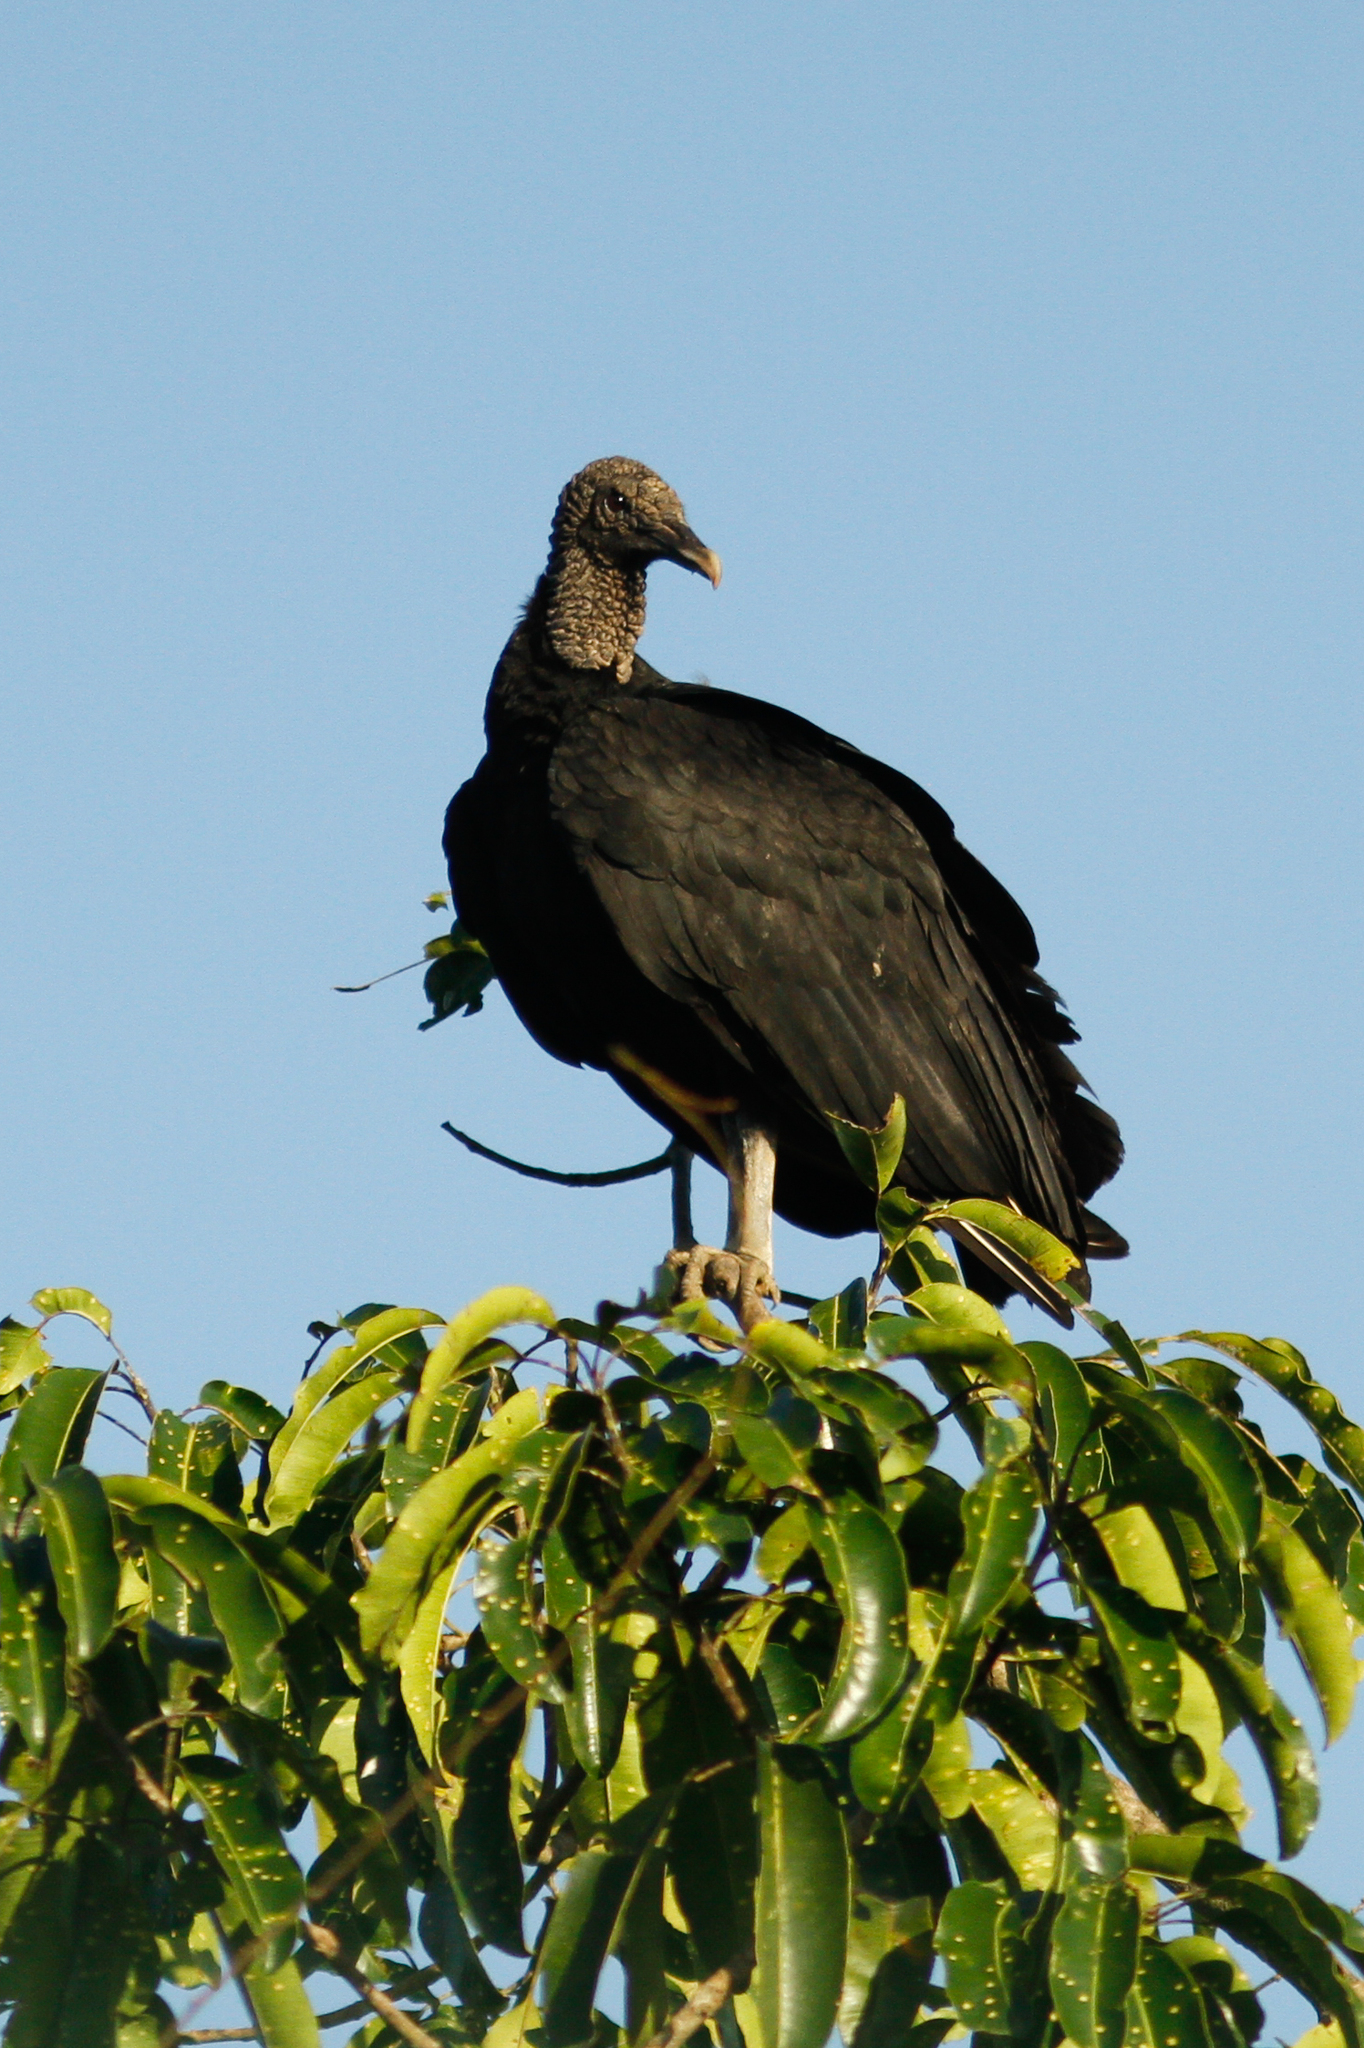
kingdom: Animalia
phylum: Chordata
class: Aves
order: Accipitriformes
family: Cathartidae
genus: Coragyps
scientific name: Coragyps atratus
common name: Black vulture
